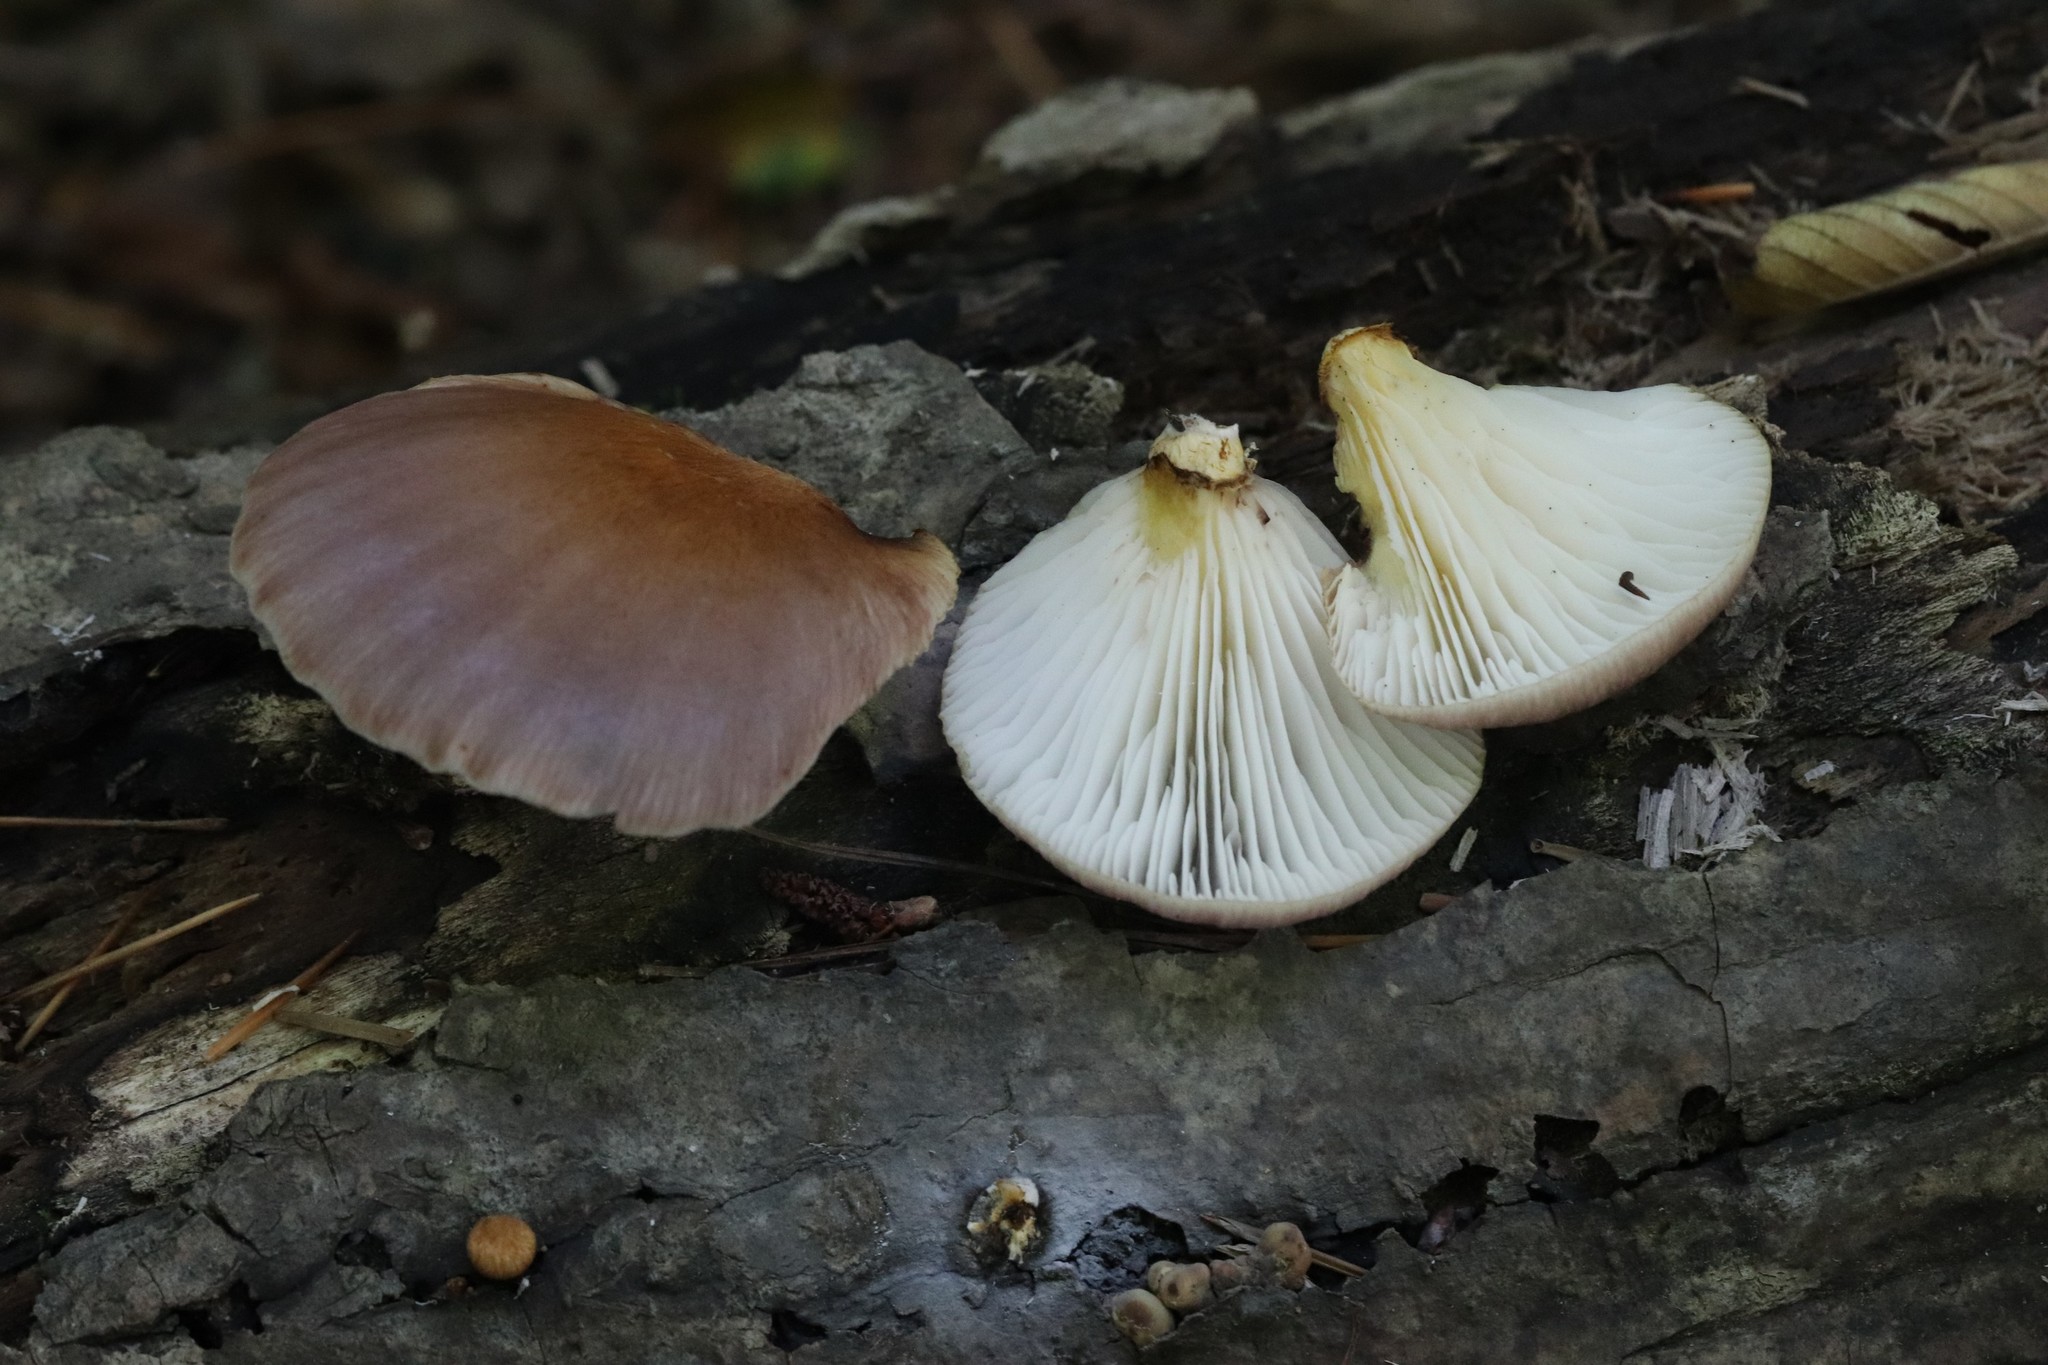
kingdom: Fungi
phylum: Basidiomycota
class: Agaricomycetes
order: Agaricales
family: Omphalotaceae
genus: Omphalotus
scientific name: Omphalotus guepiniiformis
